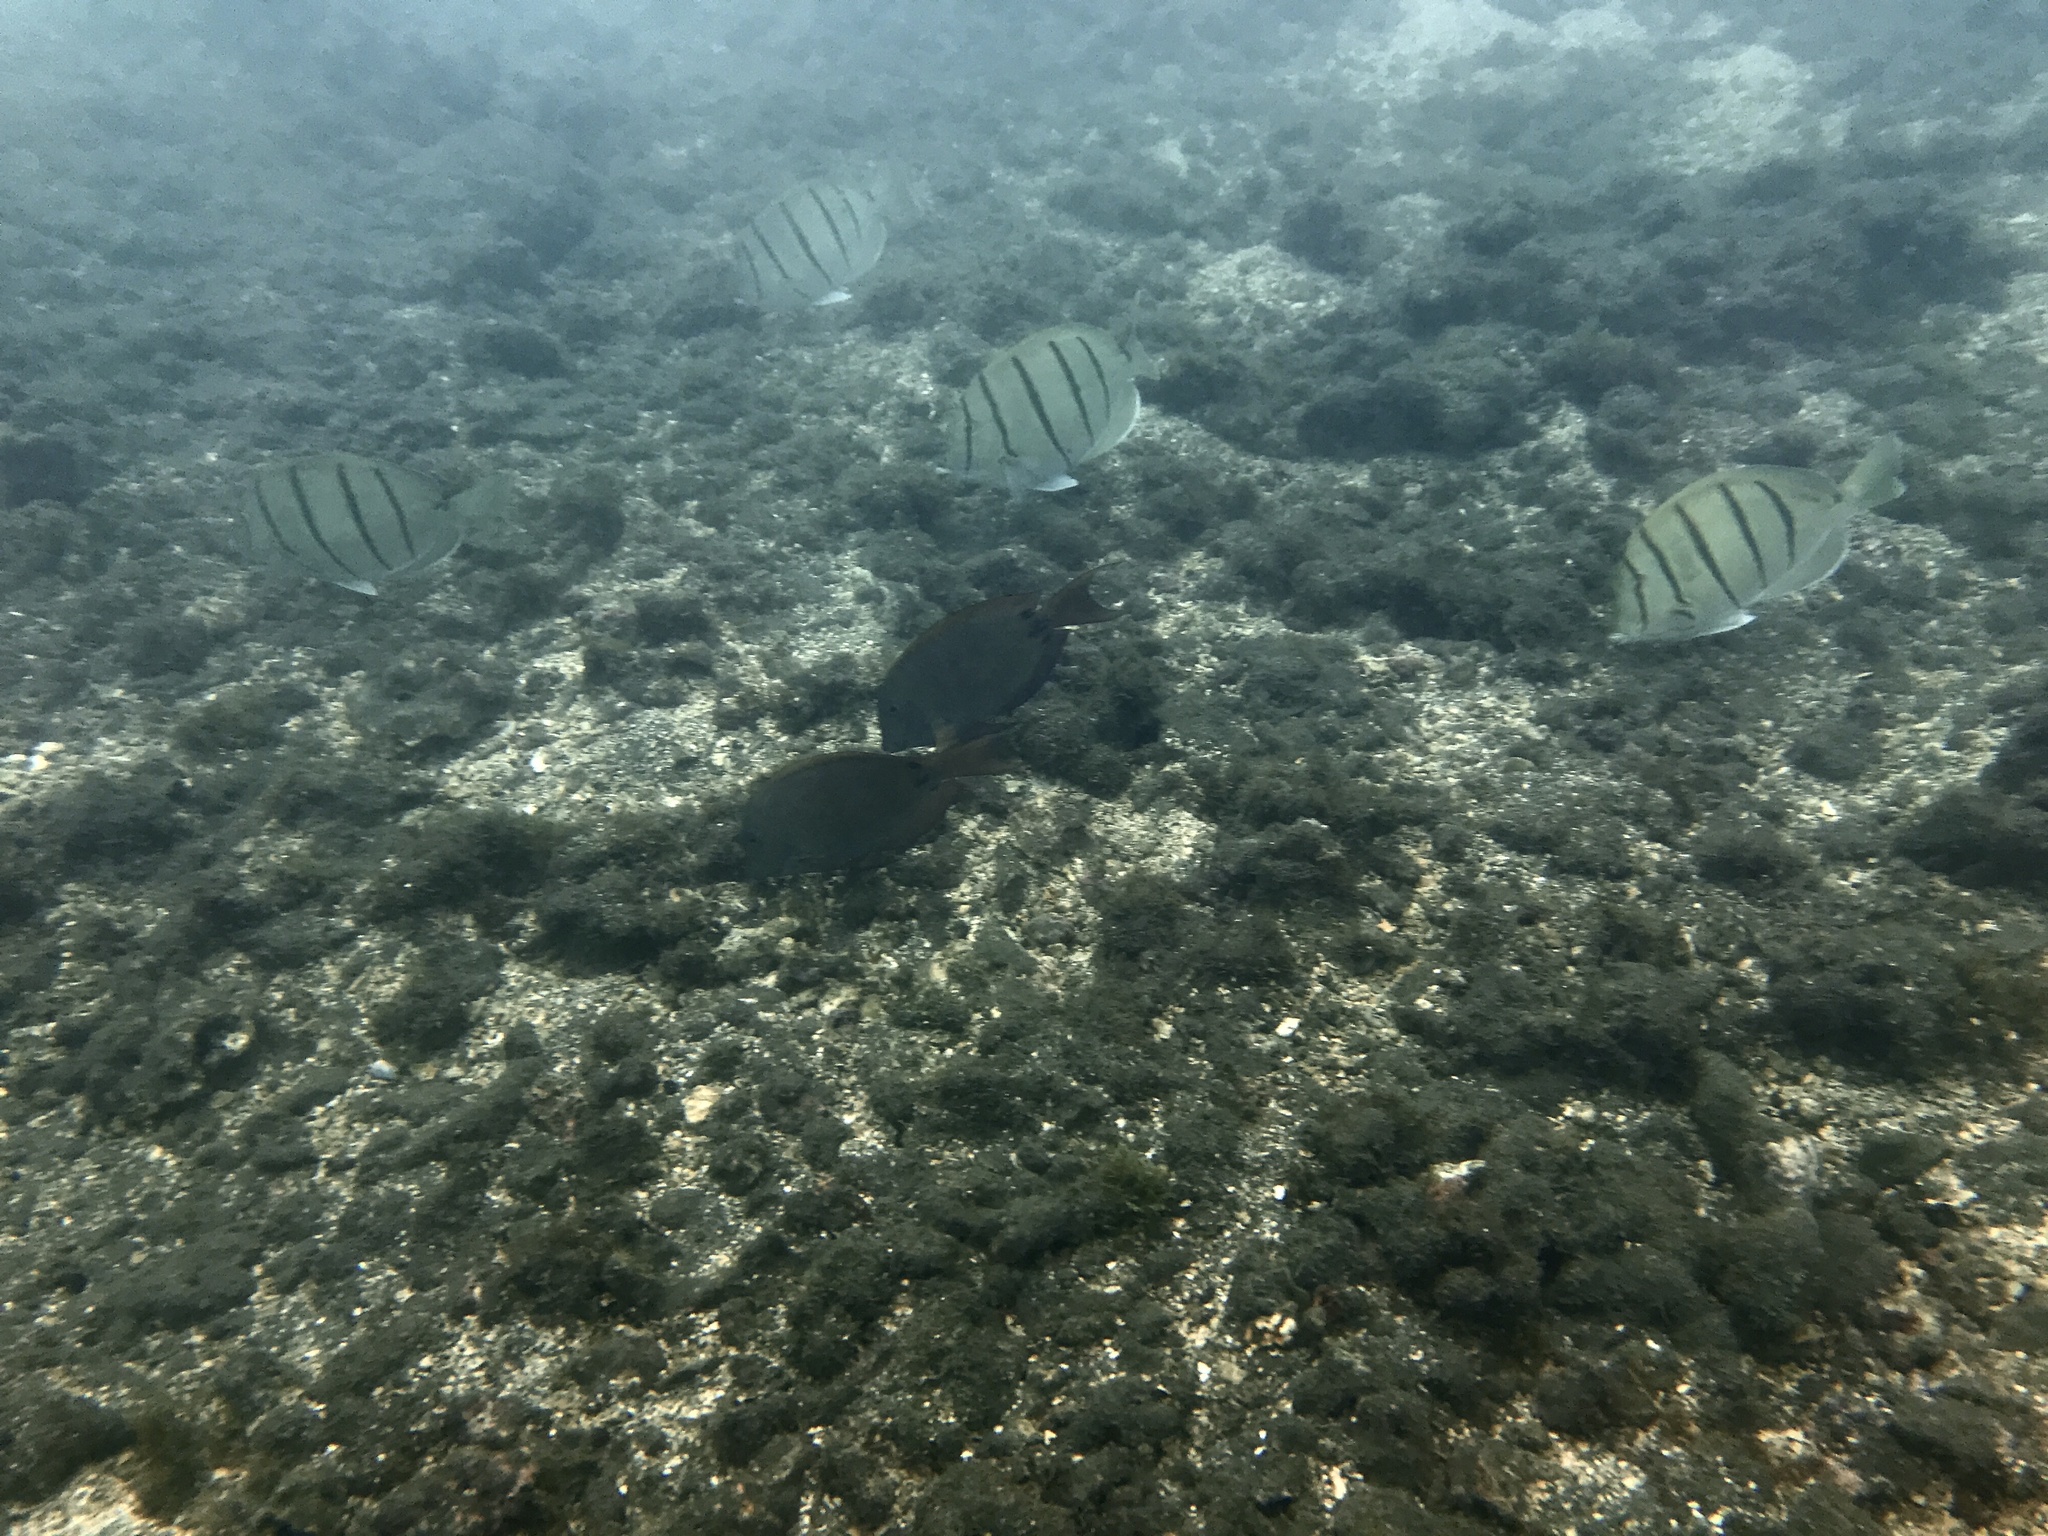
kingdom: Animalia
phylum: Chordata
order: Perciformes
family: Acanthuridae
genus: Acanthurus
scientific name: Acanthurus triostegus
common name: Convict surgeonfish
